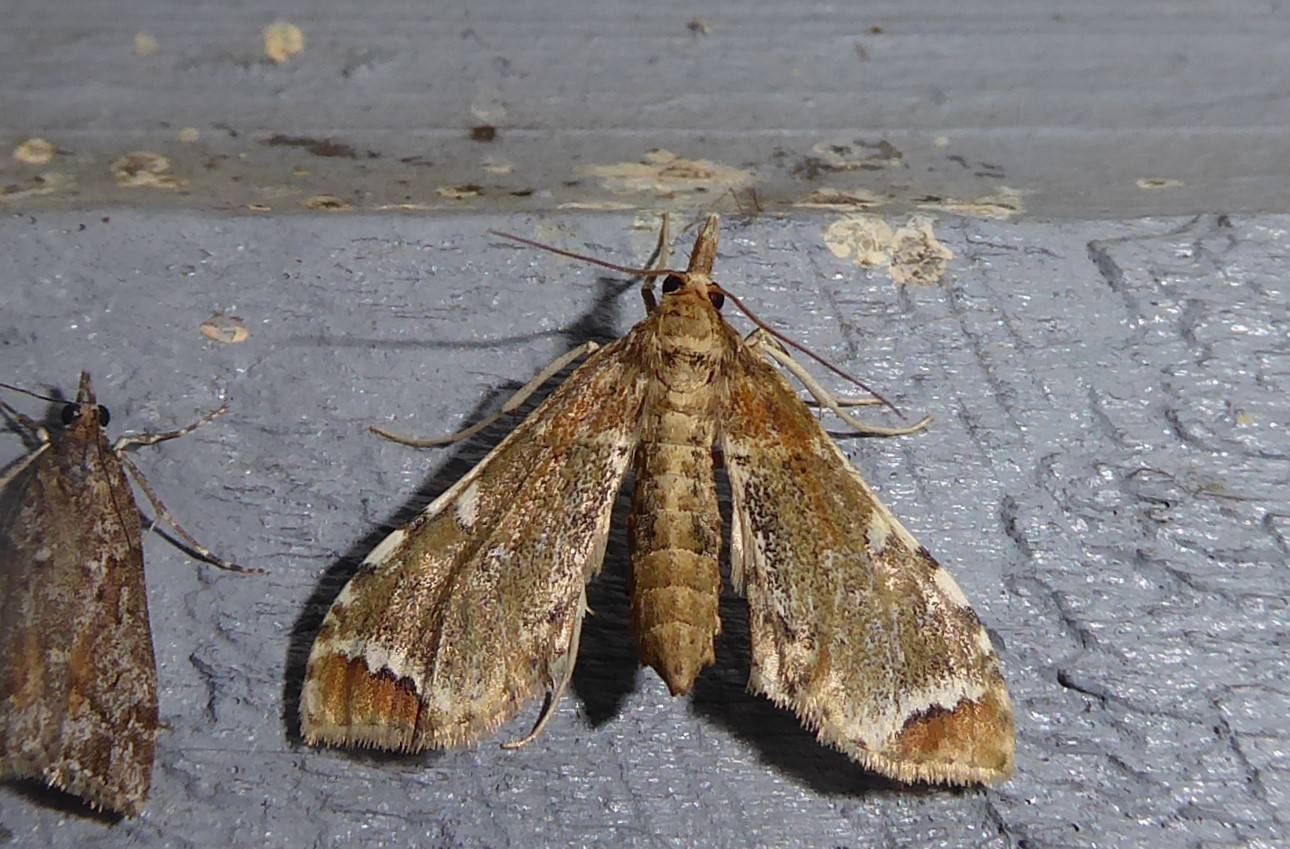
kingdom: Animalia
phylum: Arthropoda
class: Insecta
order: Lepidoptera
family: Crambidae
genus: Sceliodes
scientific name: Sceliodes cordalis
